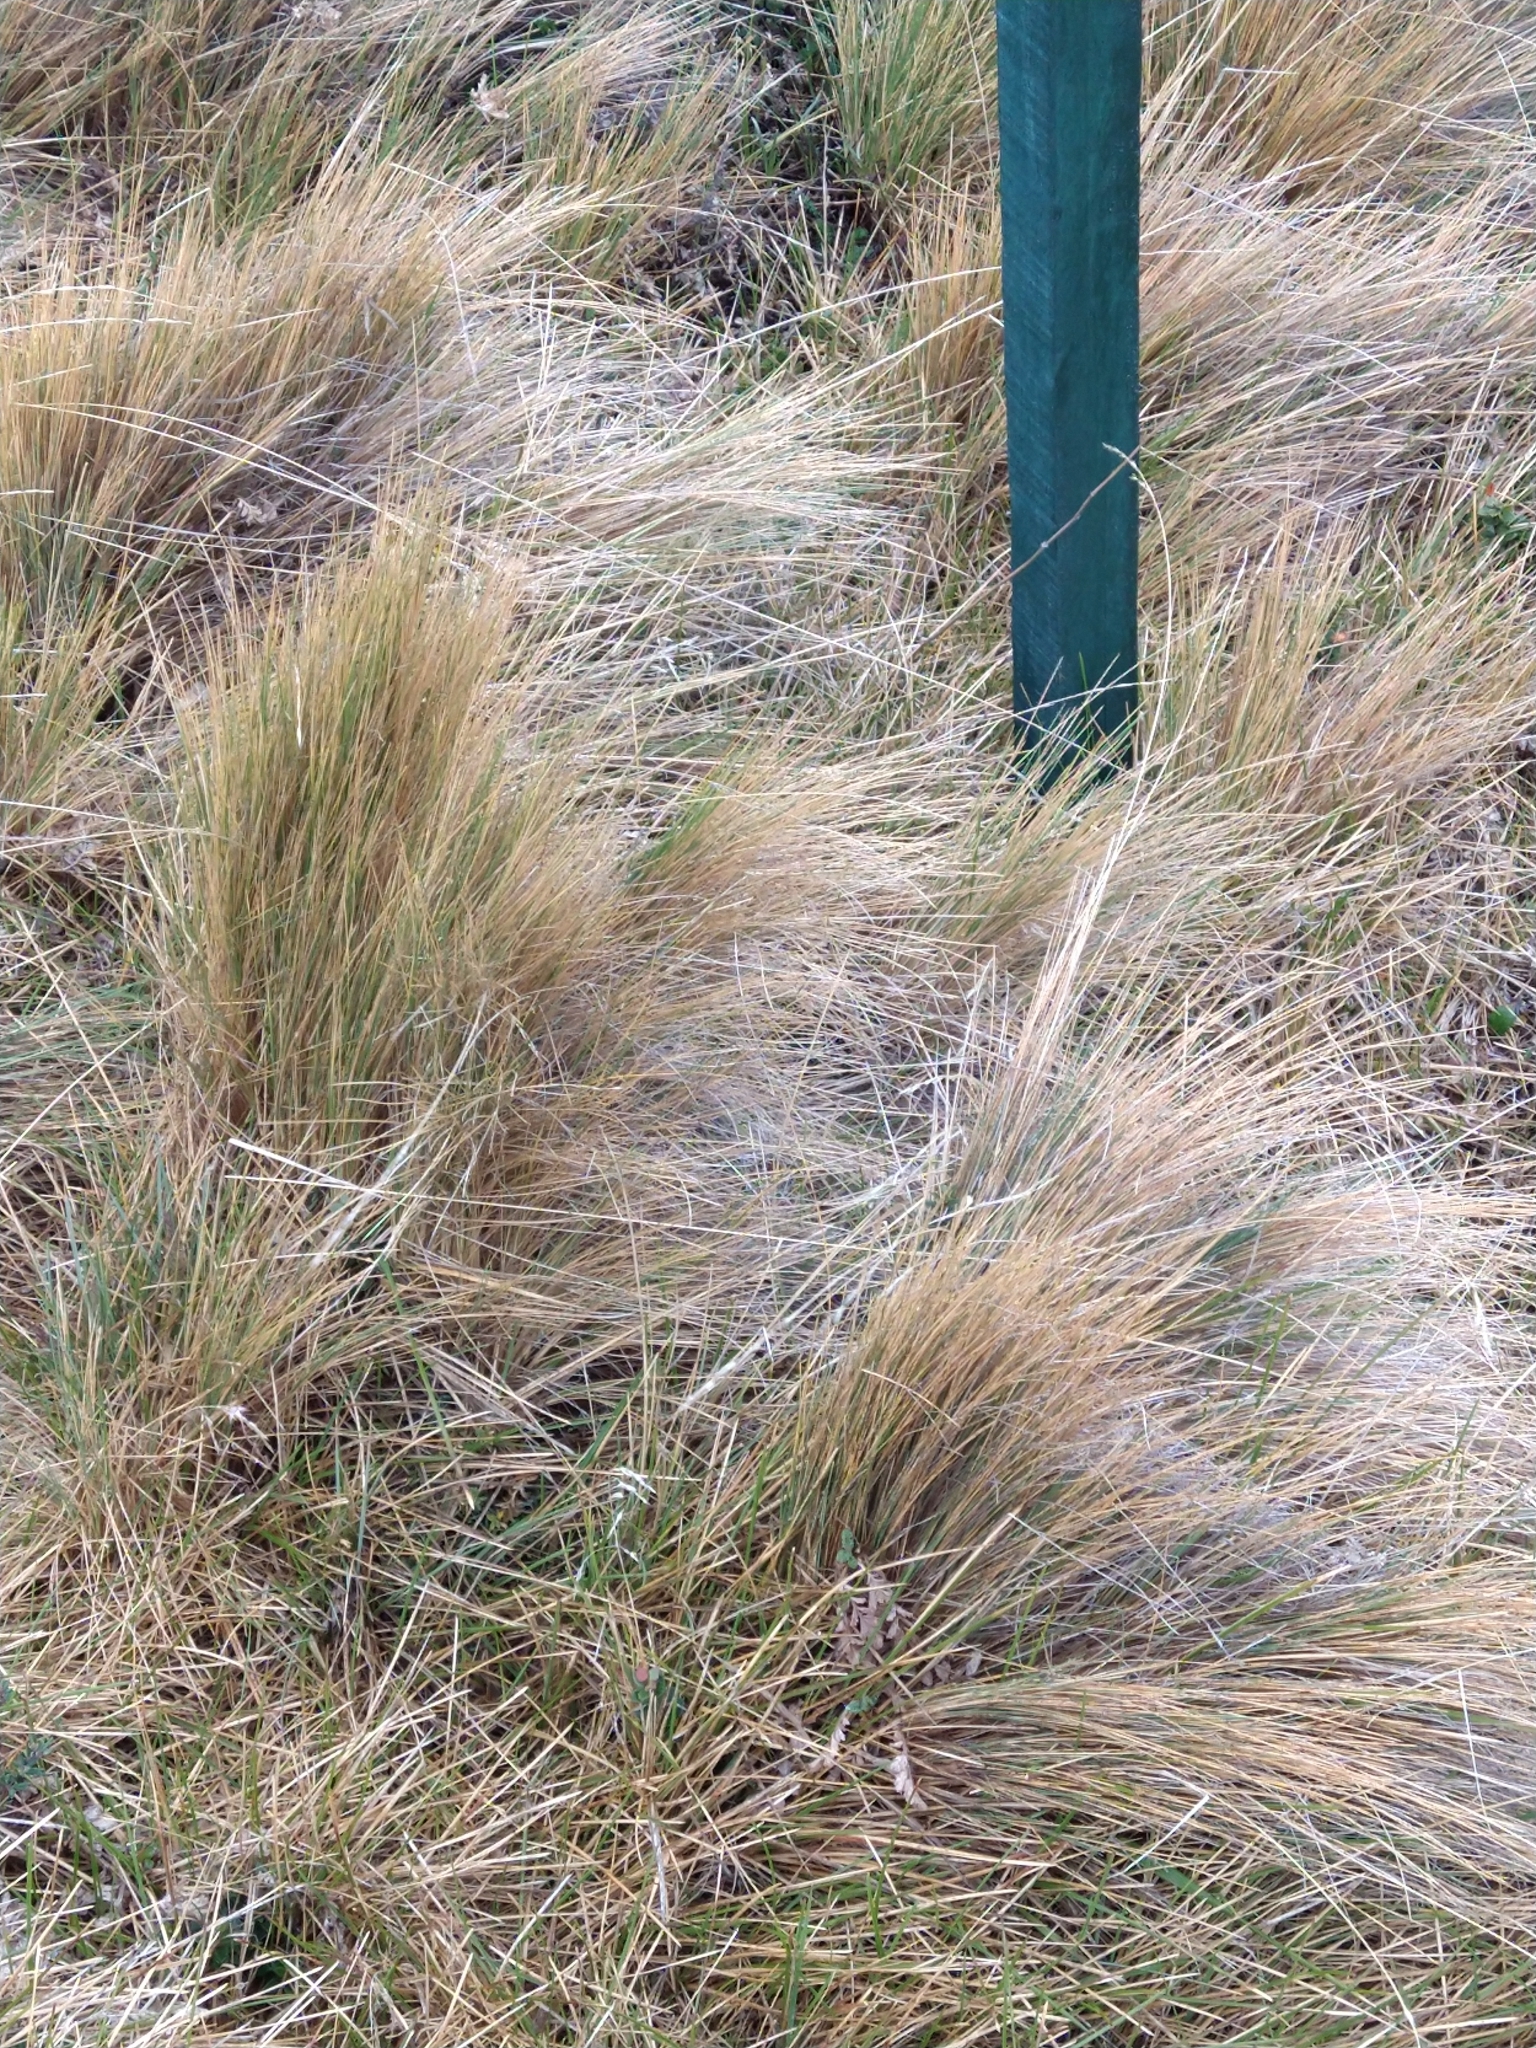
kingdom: Plantae
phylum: Tracheophyta
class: Liliopsida
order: Poales
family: Poaceae
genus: Festuca
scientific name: Festuca gracillima
